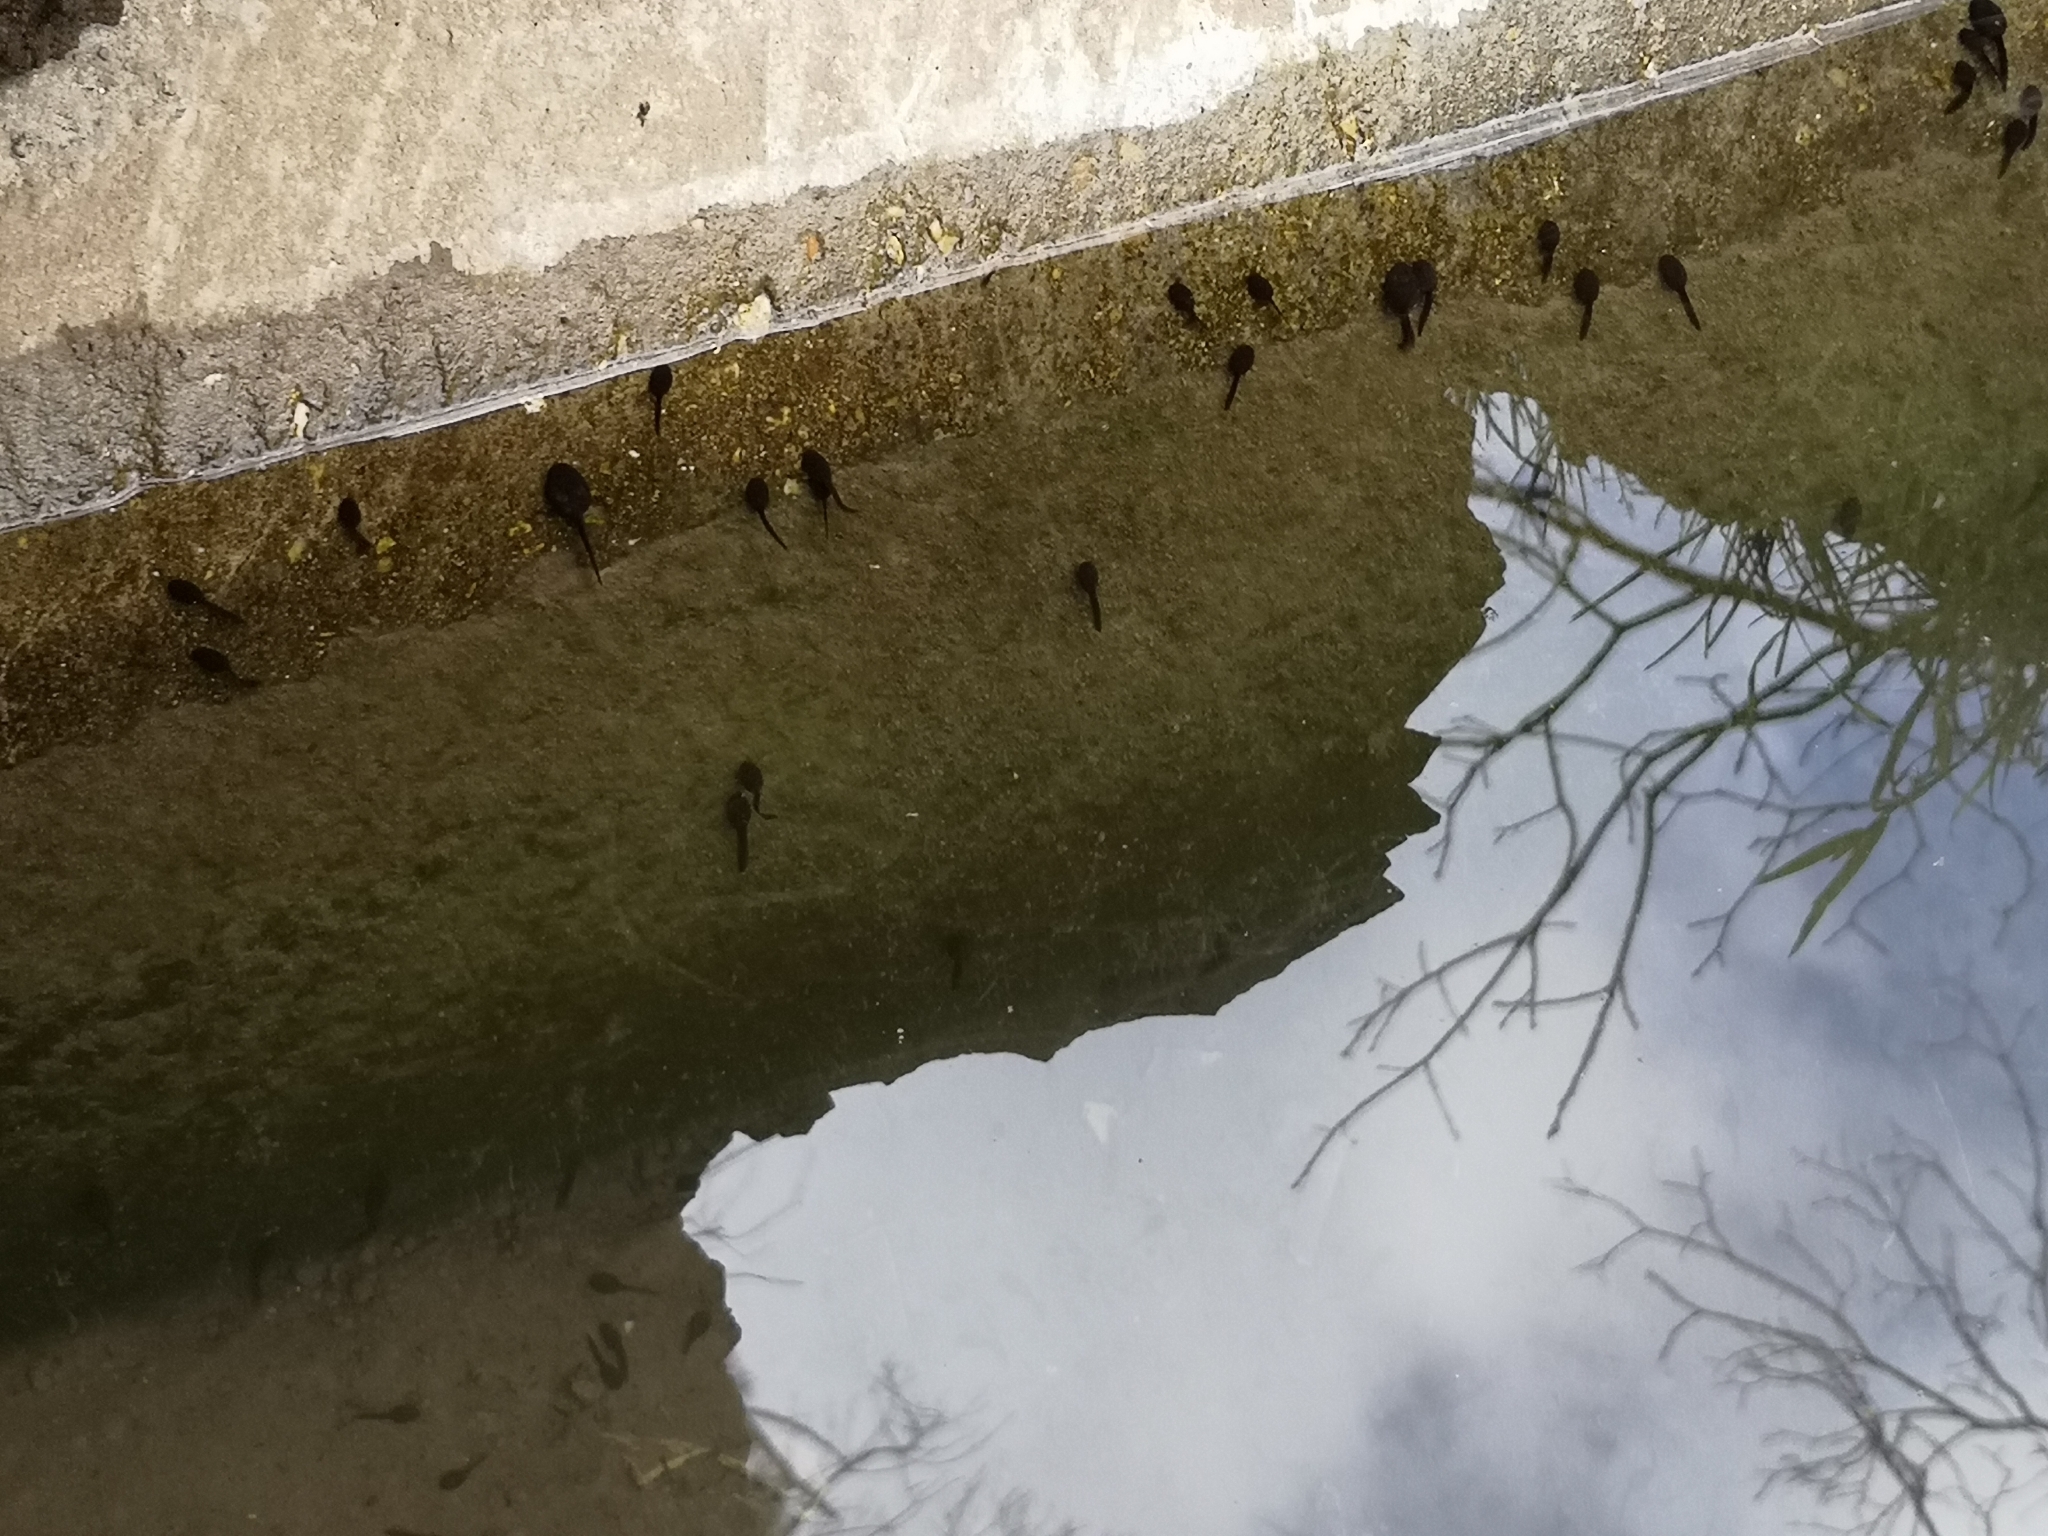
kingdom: Animalia
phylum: Chordata
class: Amphibia
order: Anura
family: Bufonidae
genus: Bufo
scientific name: Bufo bufo
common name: Common toad
